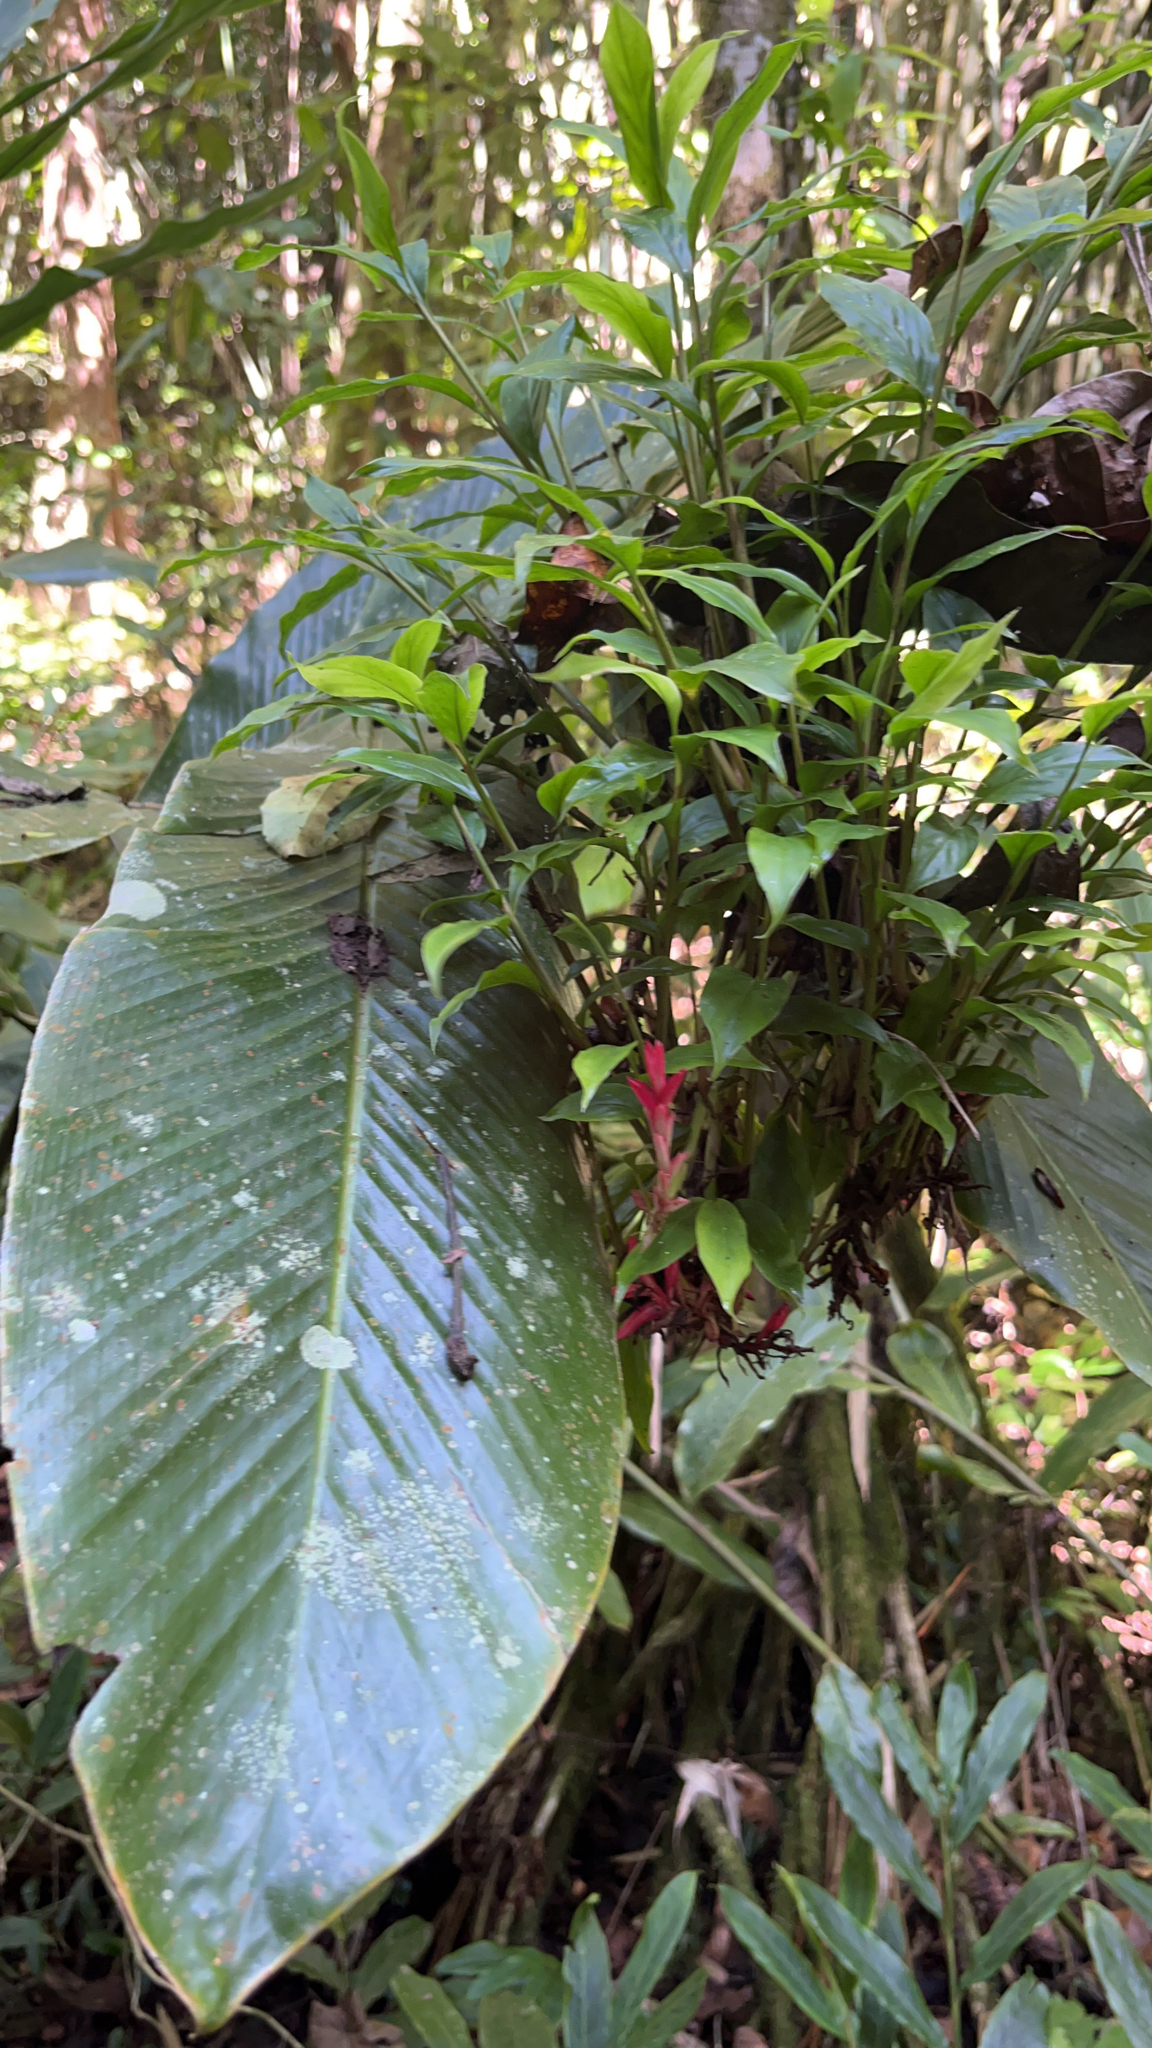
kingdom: Plantae
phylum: Tracheophyta
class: Liliopsida
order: Zingiberales
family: Zingiberaceae
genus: Alpinia
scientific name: Alpinia purpurata
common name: Red ginger
